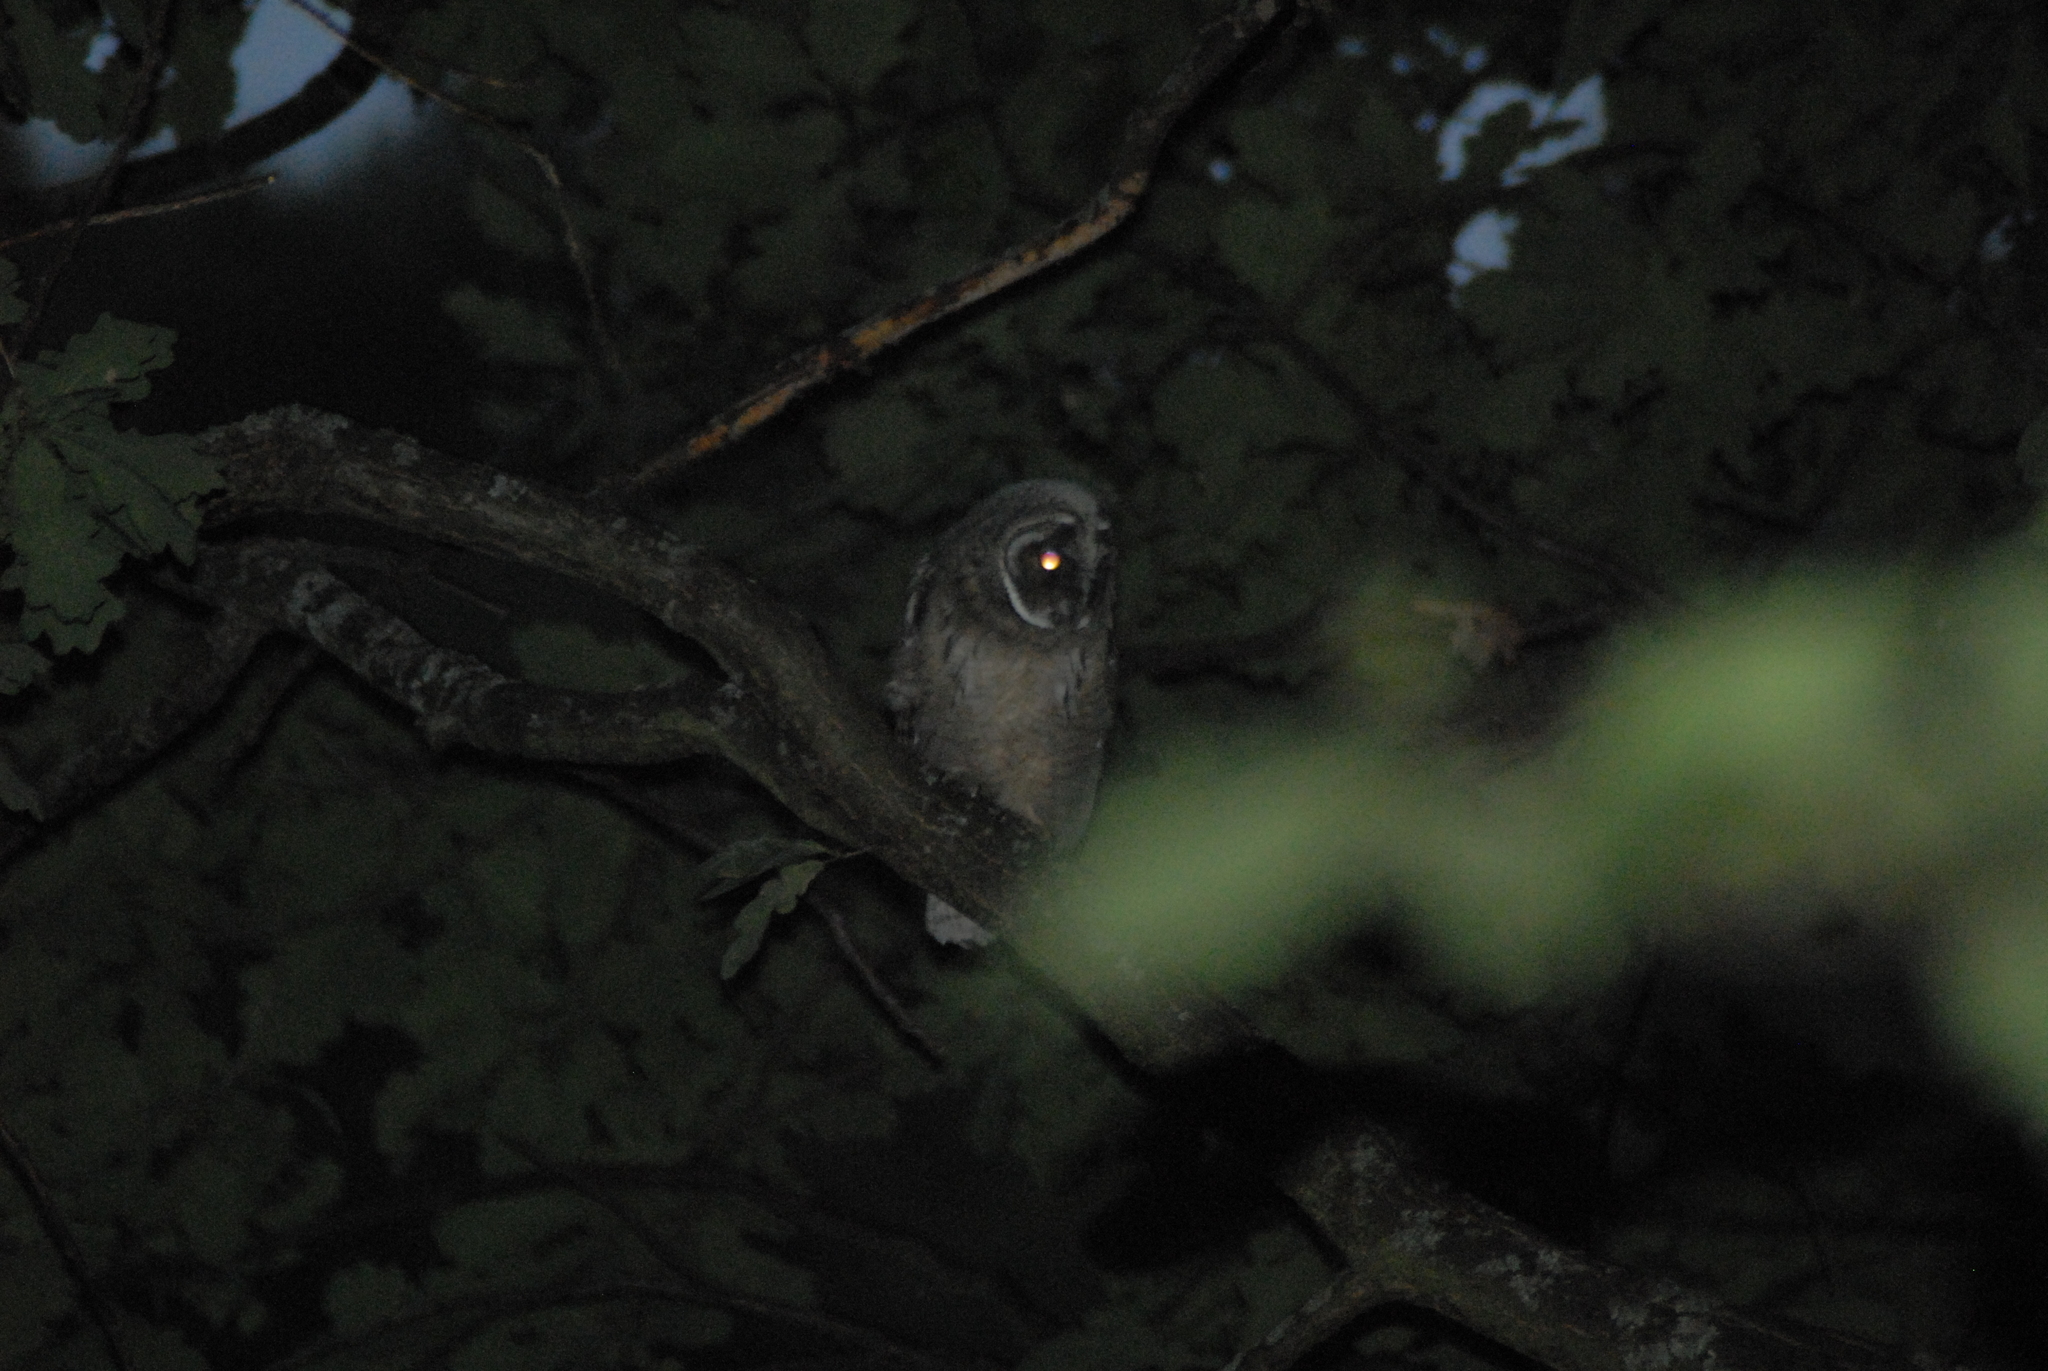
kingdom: Animalia
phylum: Chordata
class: Aves
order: Strigiformes
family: Strigidae
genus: Asio
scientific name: Asio otus
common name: Long-eared owl
